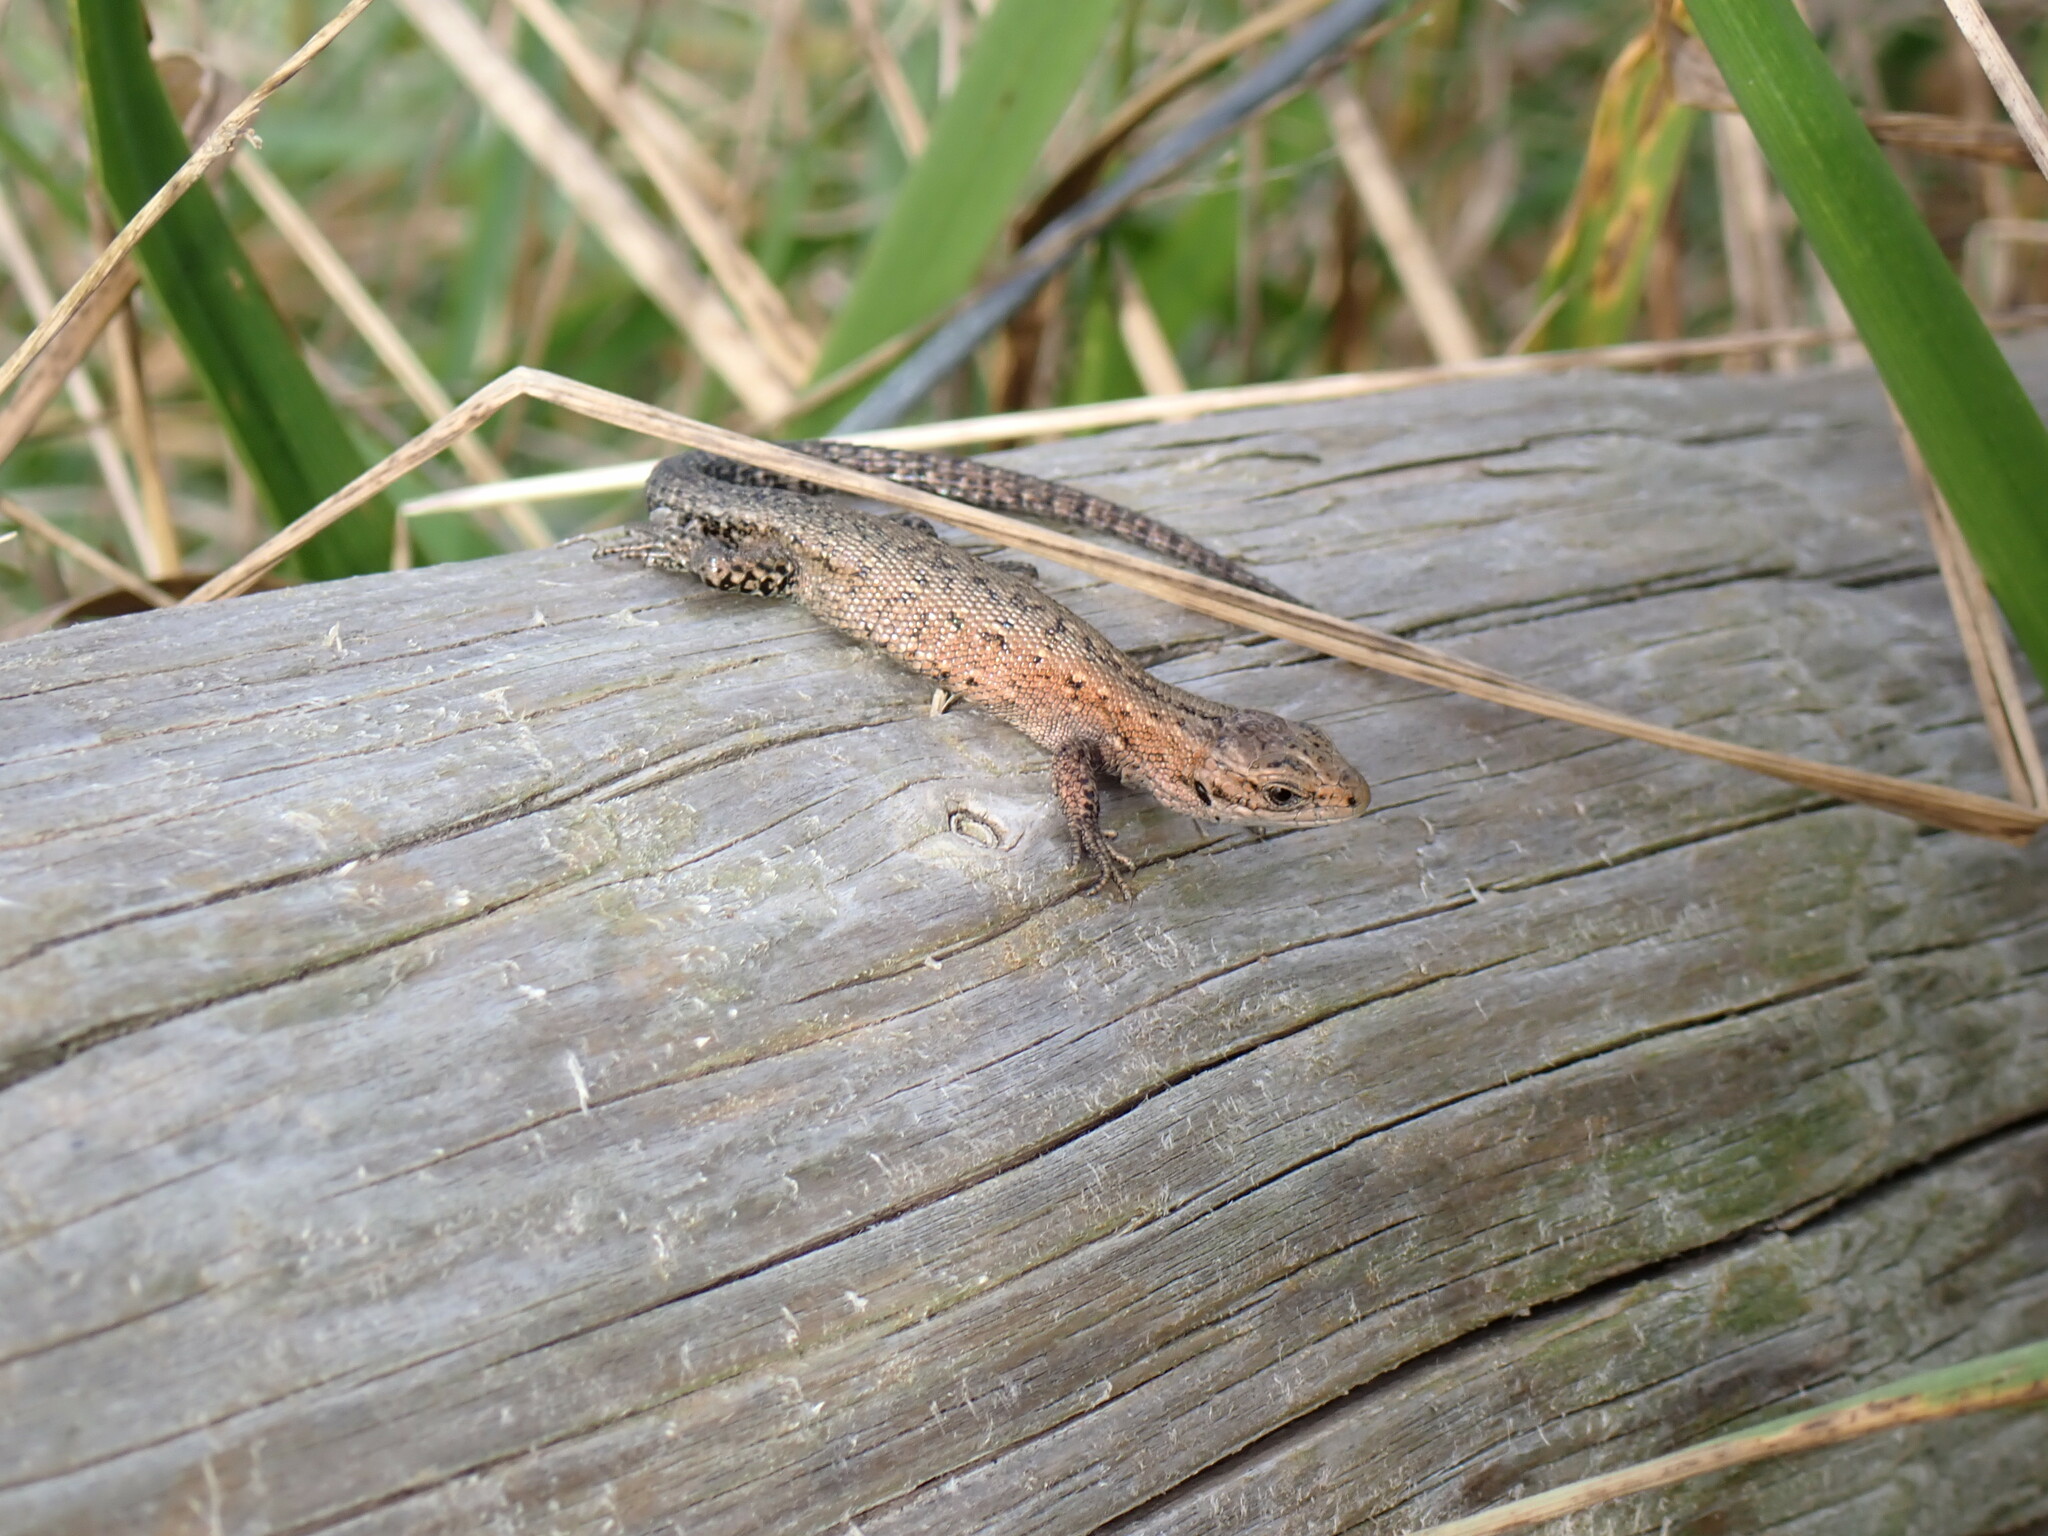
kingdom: Animalia
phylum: Chordata
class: Squamata
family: Lacertidae
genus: Zootoca
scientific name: Zootoca vivipara
